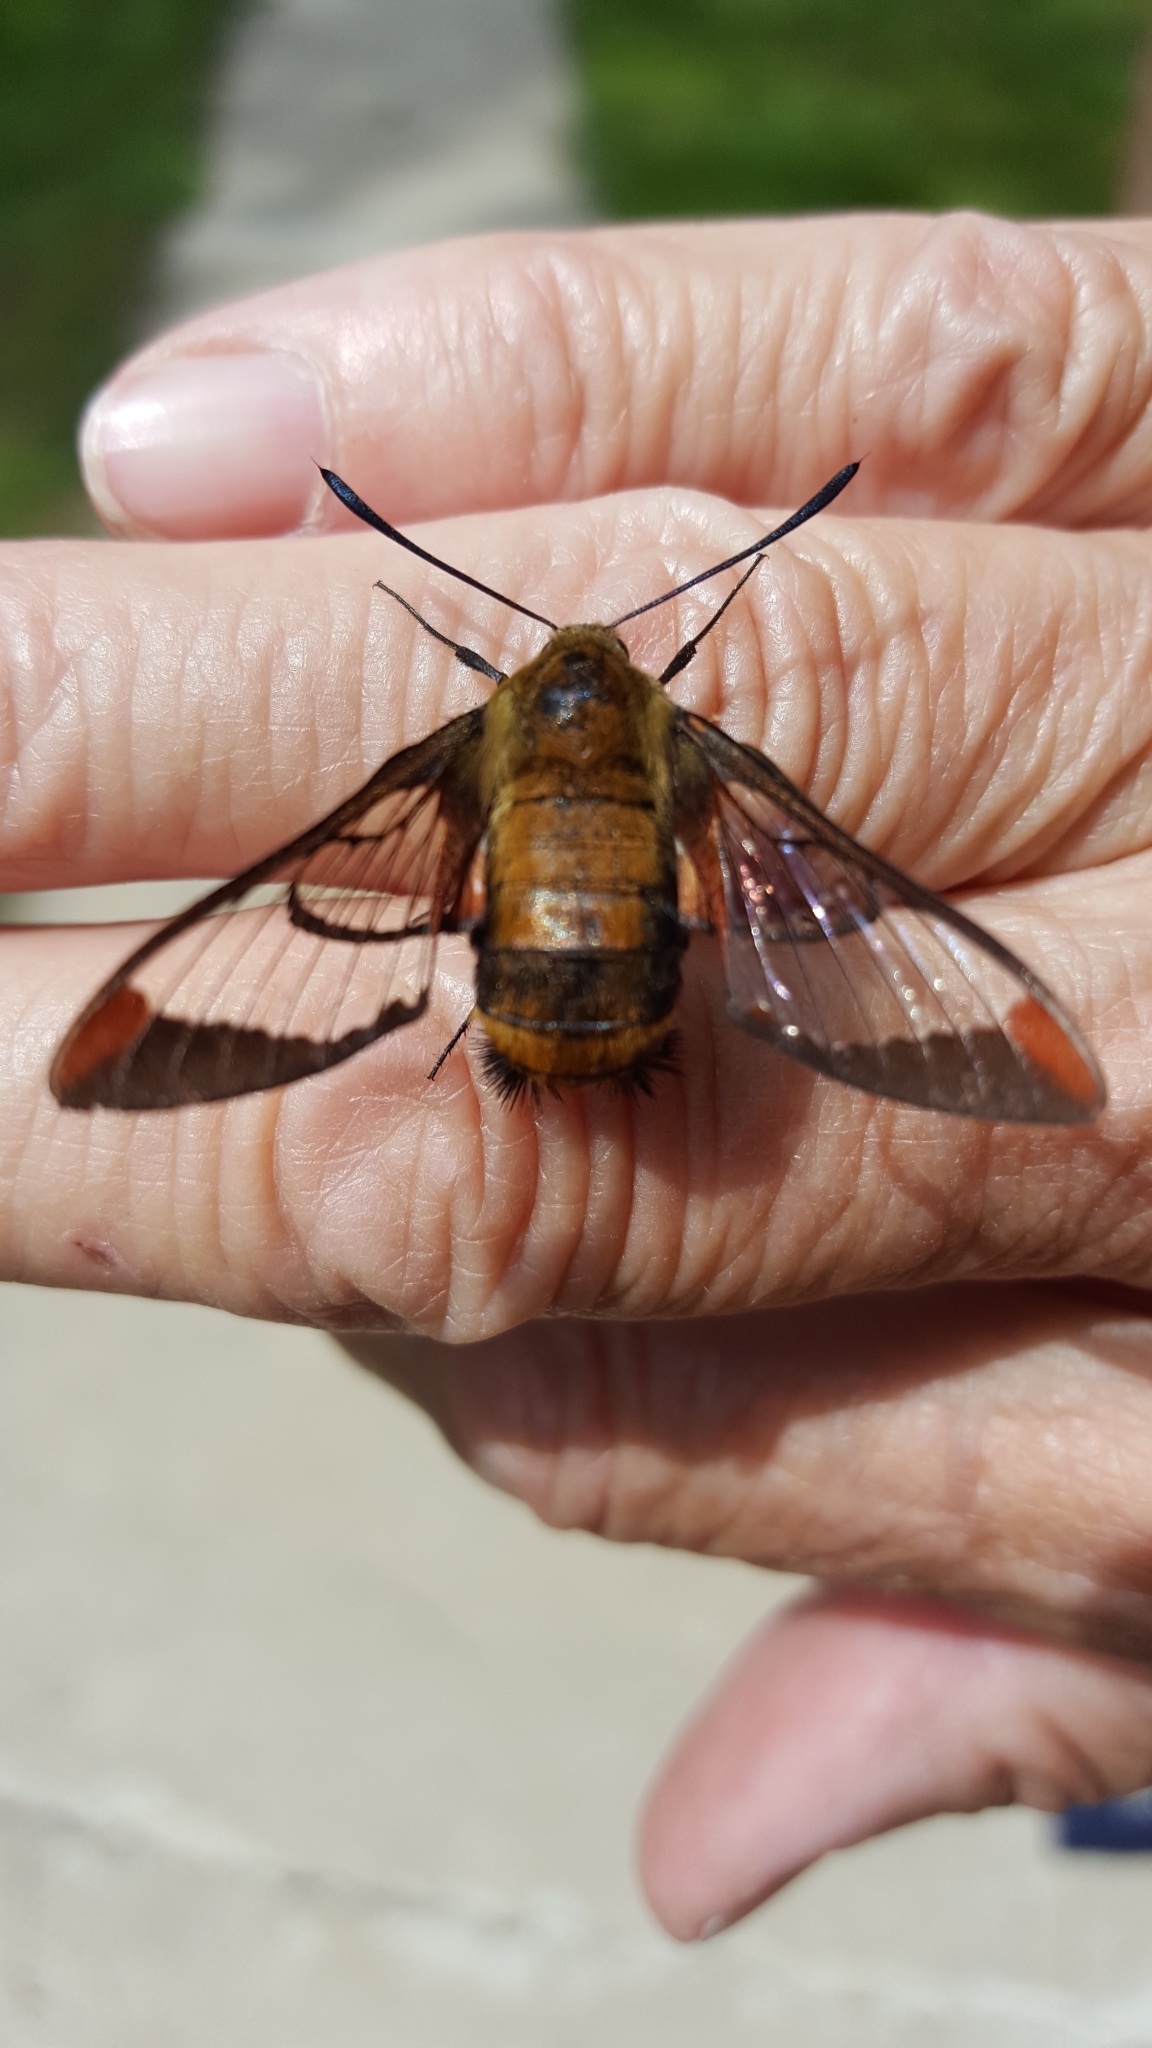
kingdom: Animalia
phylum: Arthropoda
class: Insecta
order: Lepidoptera
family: Sphingidae
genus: Hemaris
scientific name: Hemaris diffinis
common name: Bumblebee moth
